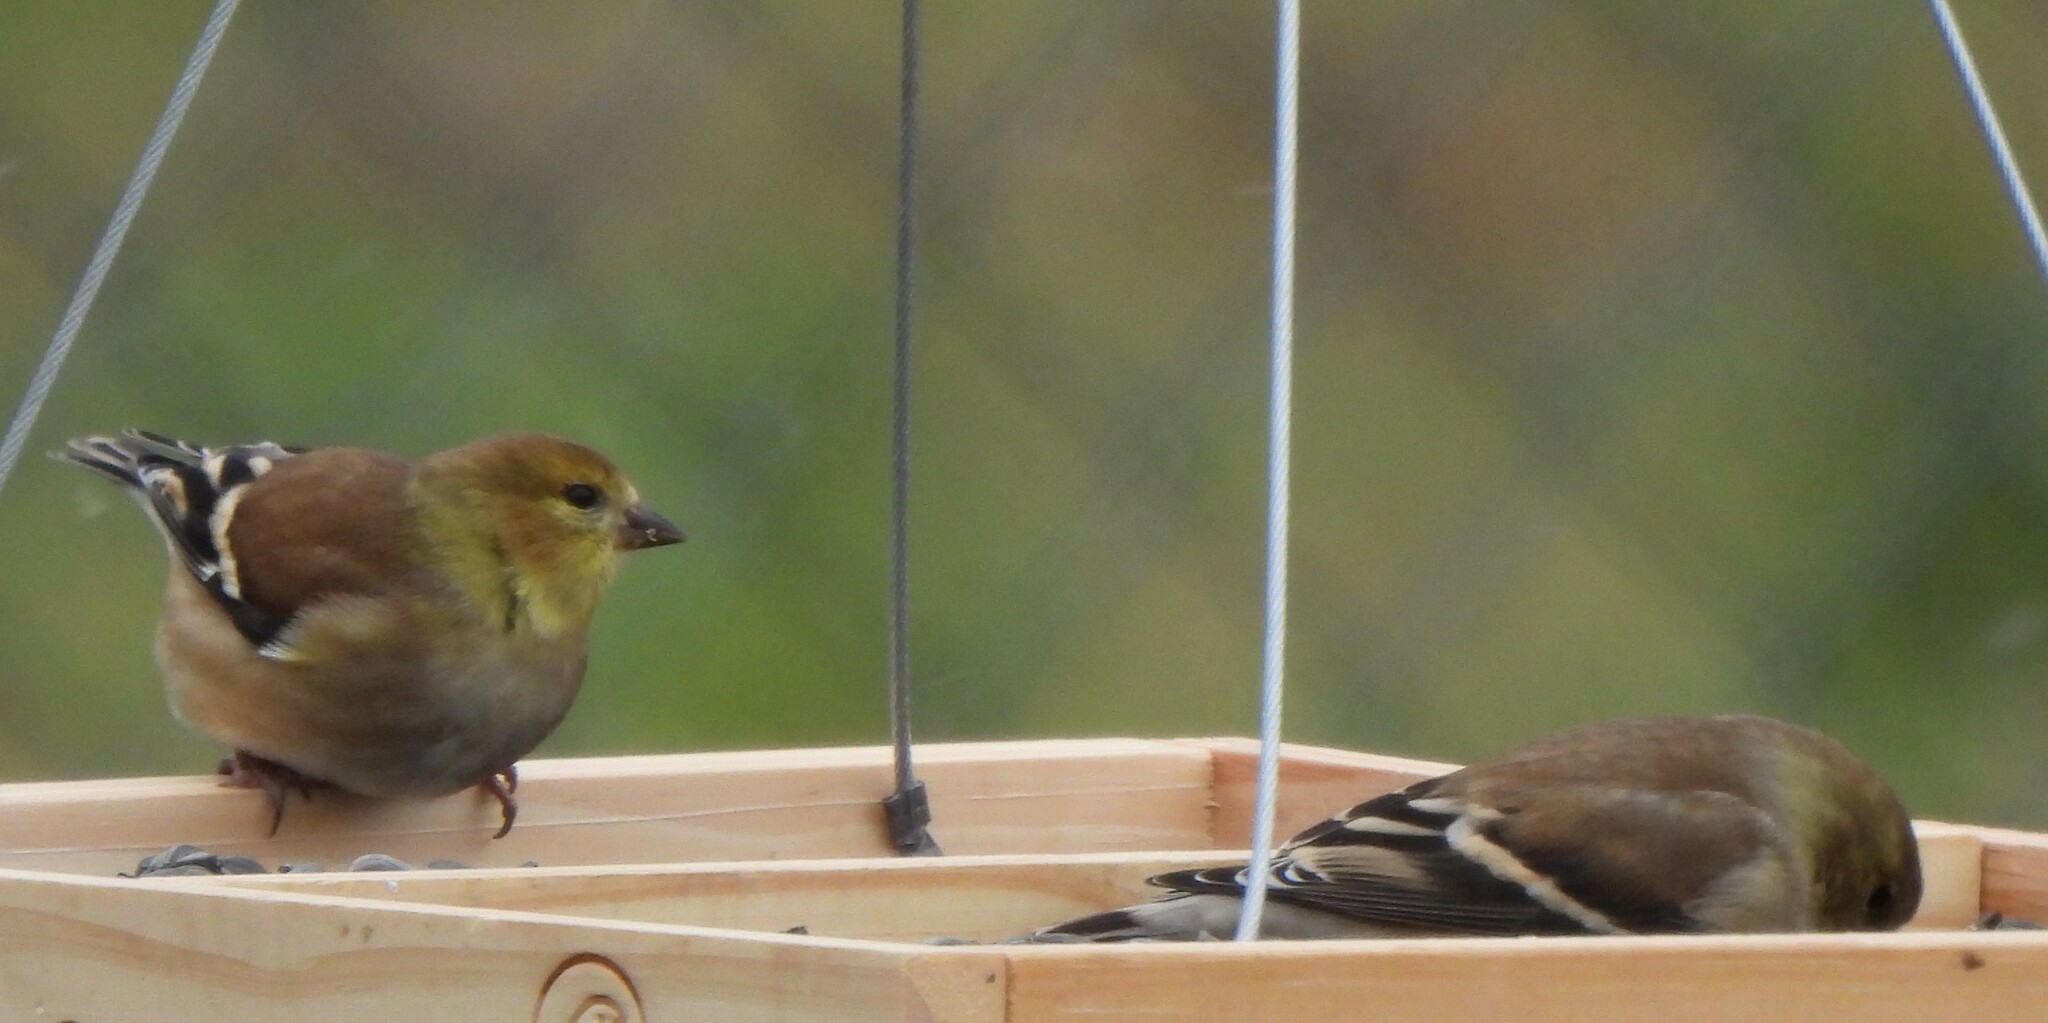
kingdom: Animalia
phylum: Chordata
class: Aves
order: Passeriformes
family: Fringillidae
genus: Spinus
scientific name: Spinus tristis
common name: American goldfinch
